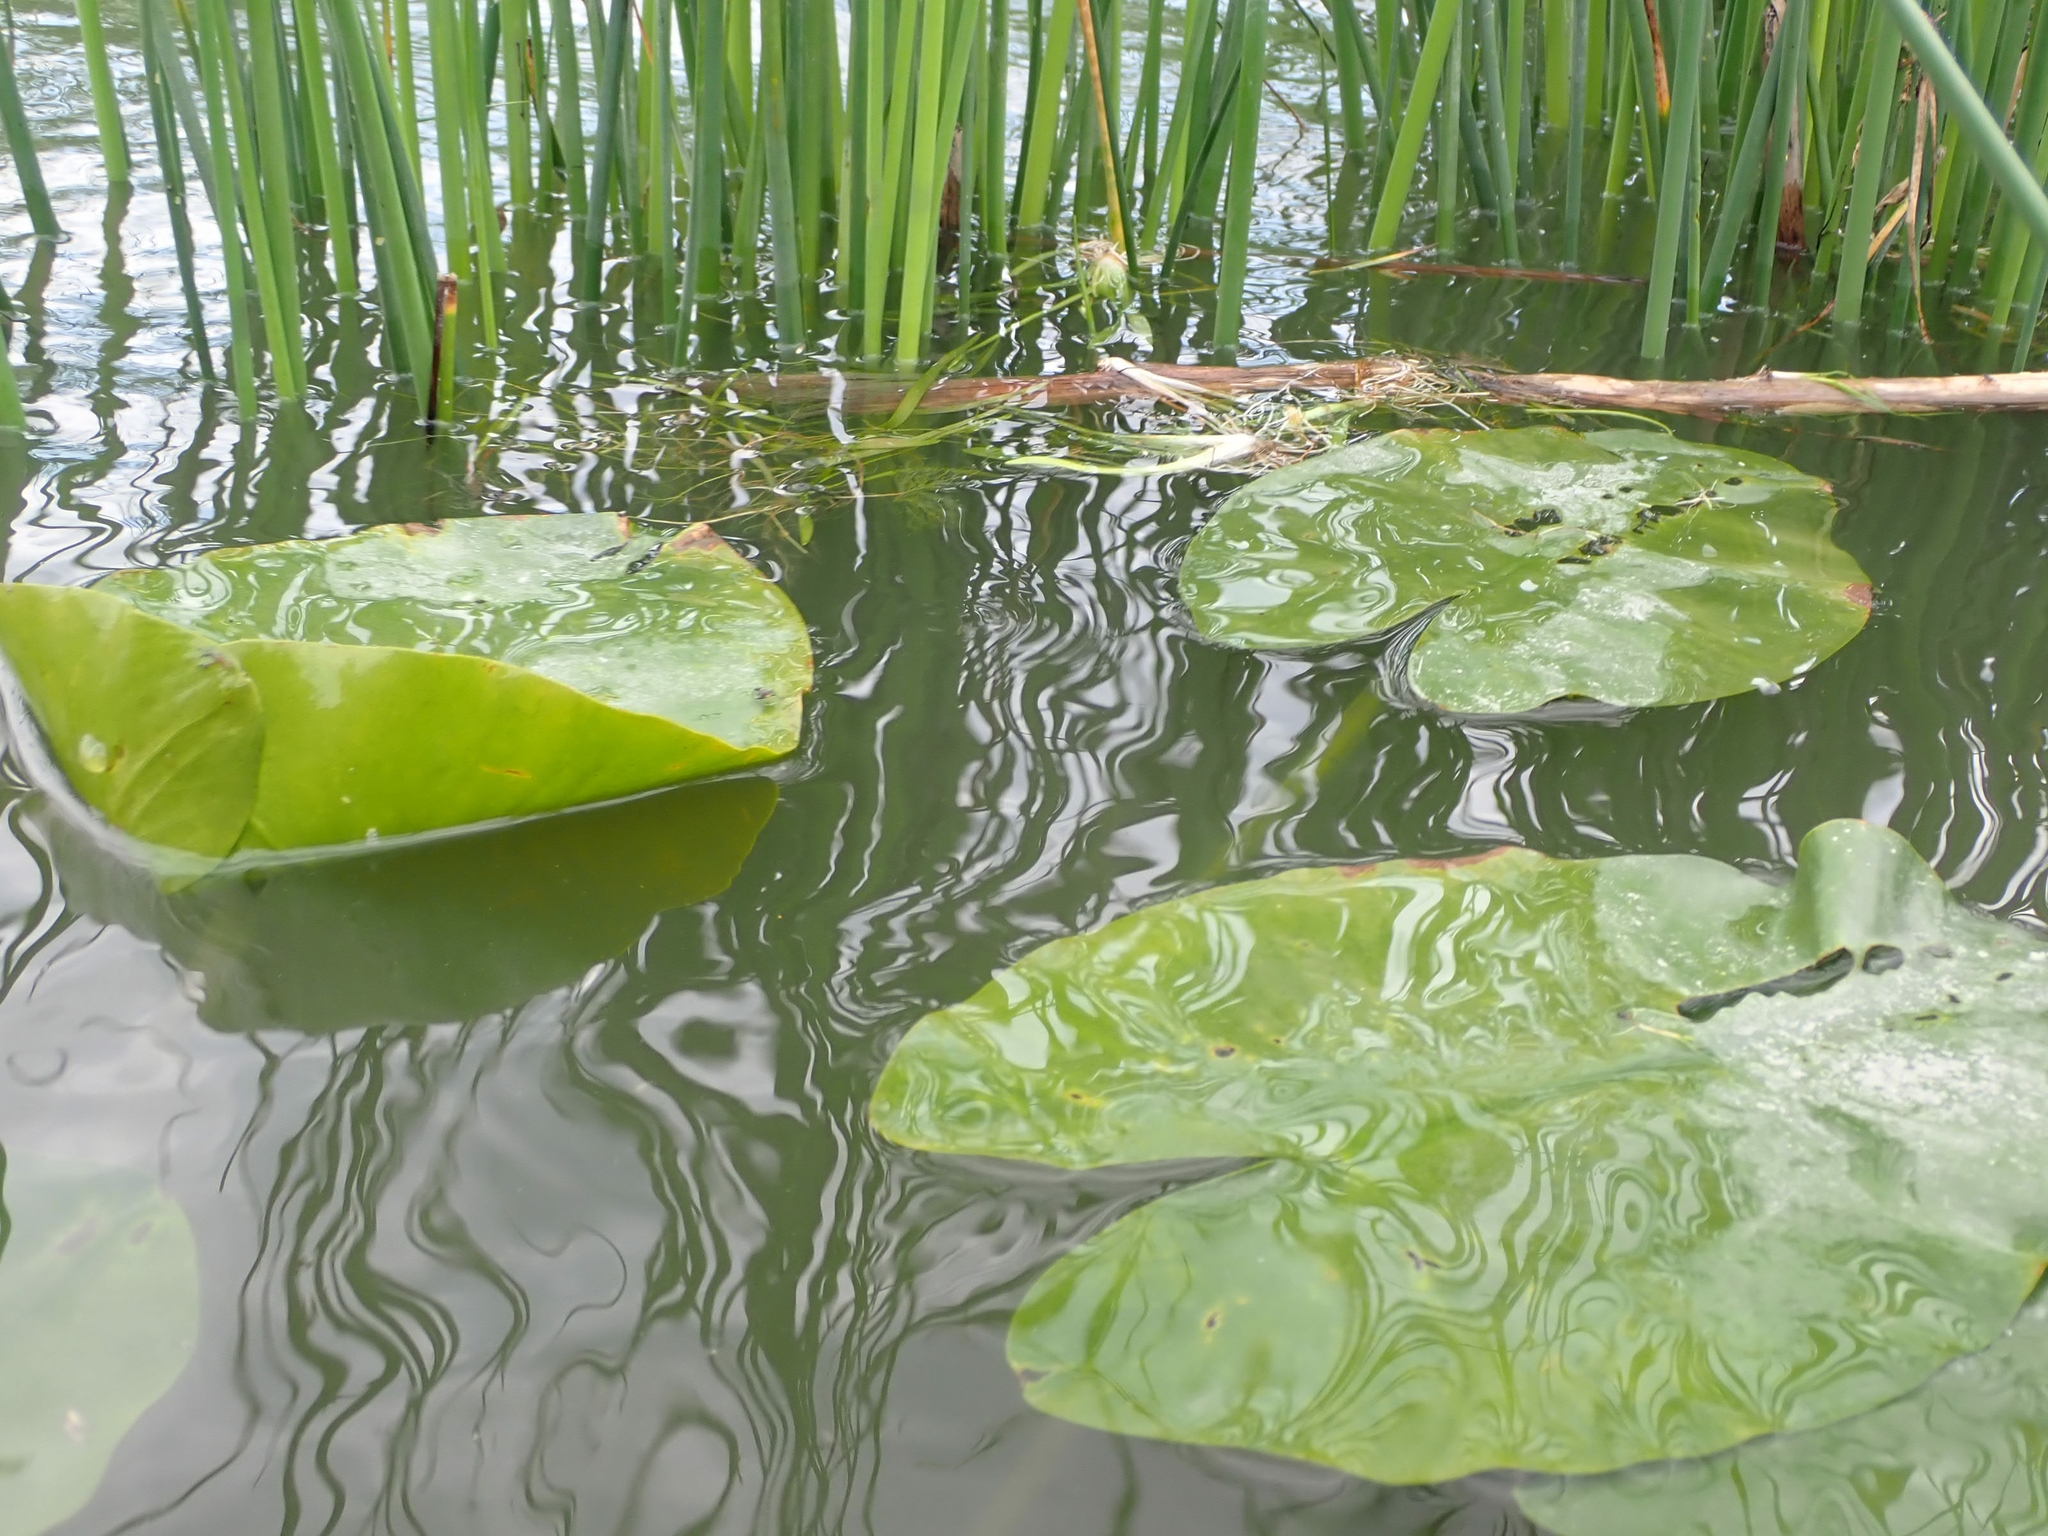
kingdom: Plantae
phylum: Tracheophyta
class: Magnoliopsida
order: Nymphaeales
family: Nymphaeaceae
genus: Nuphar
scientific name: Nuphar variegata
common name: Beaver-root
